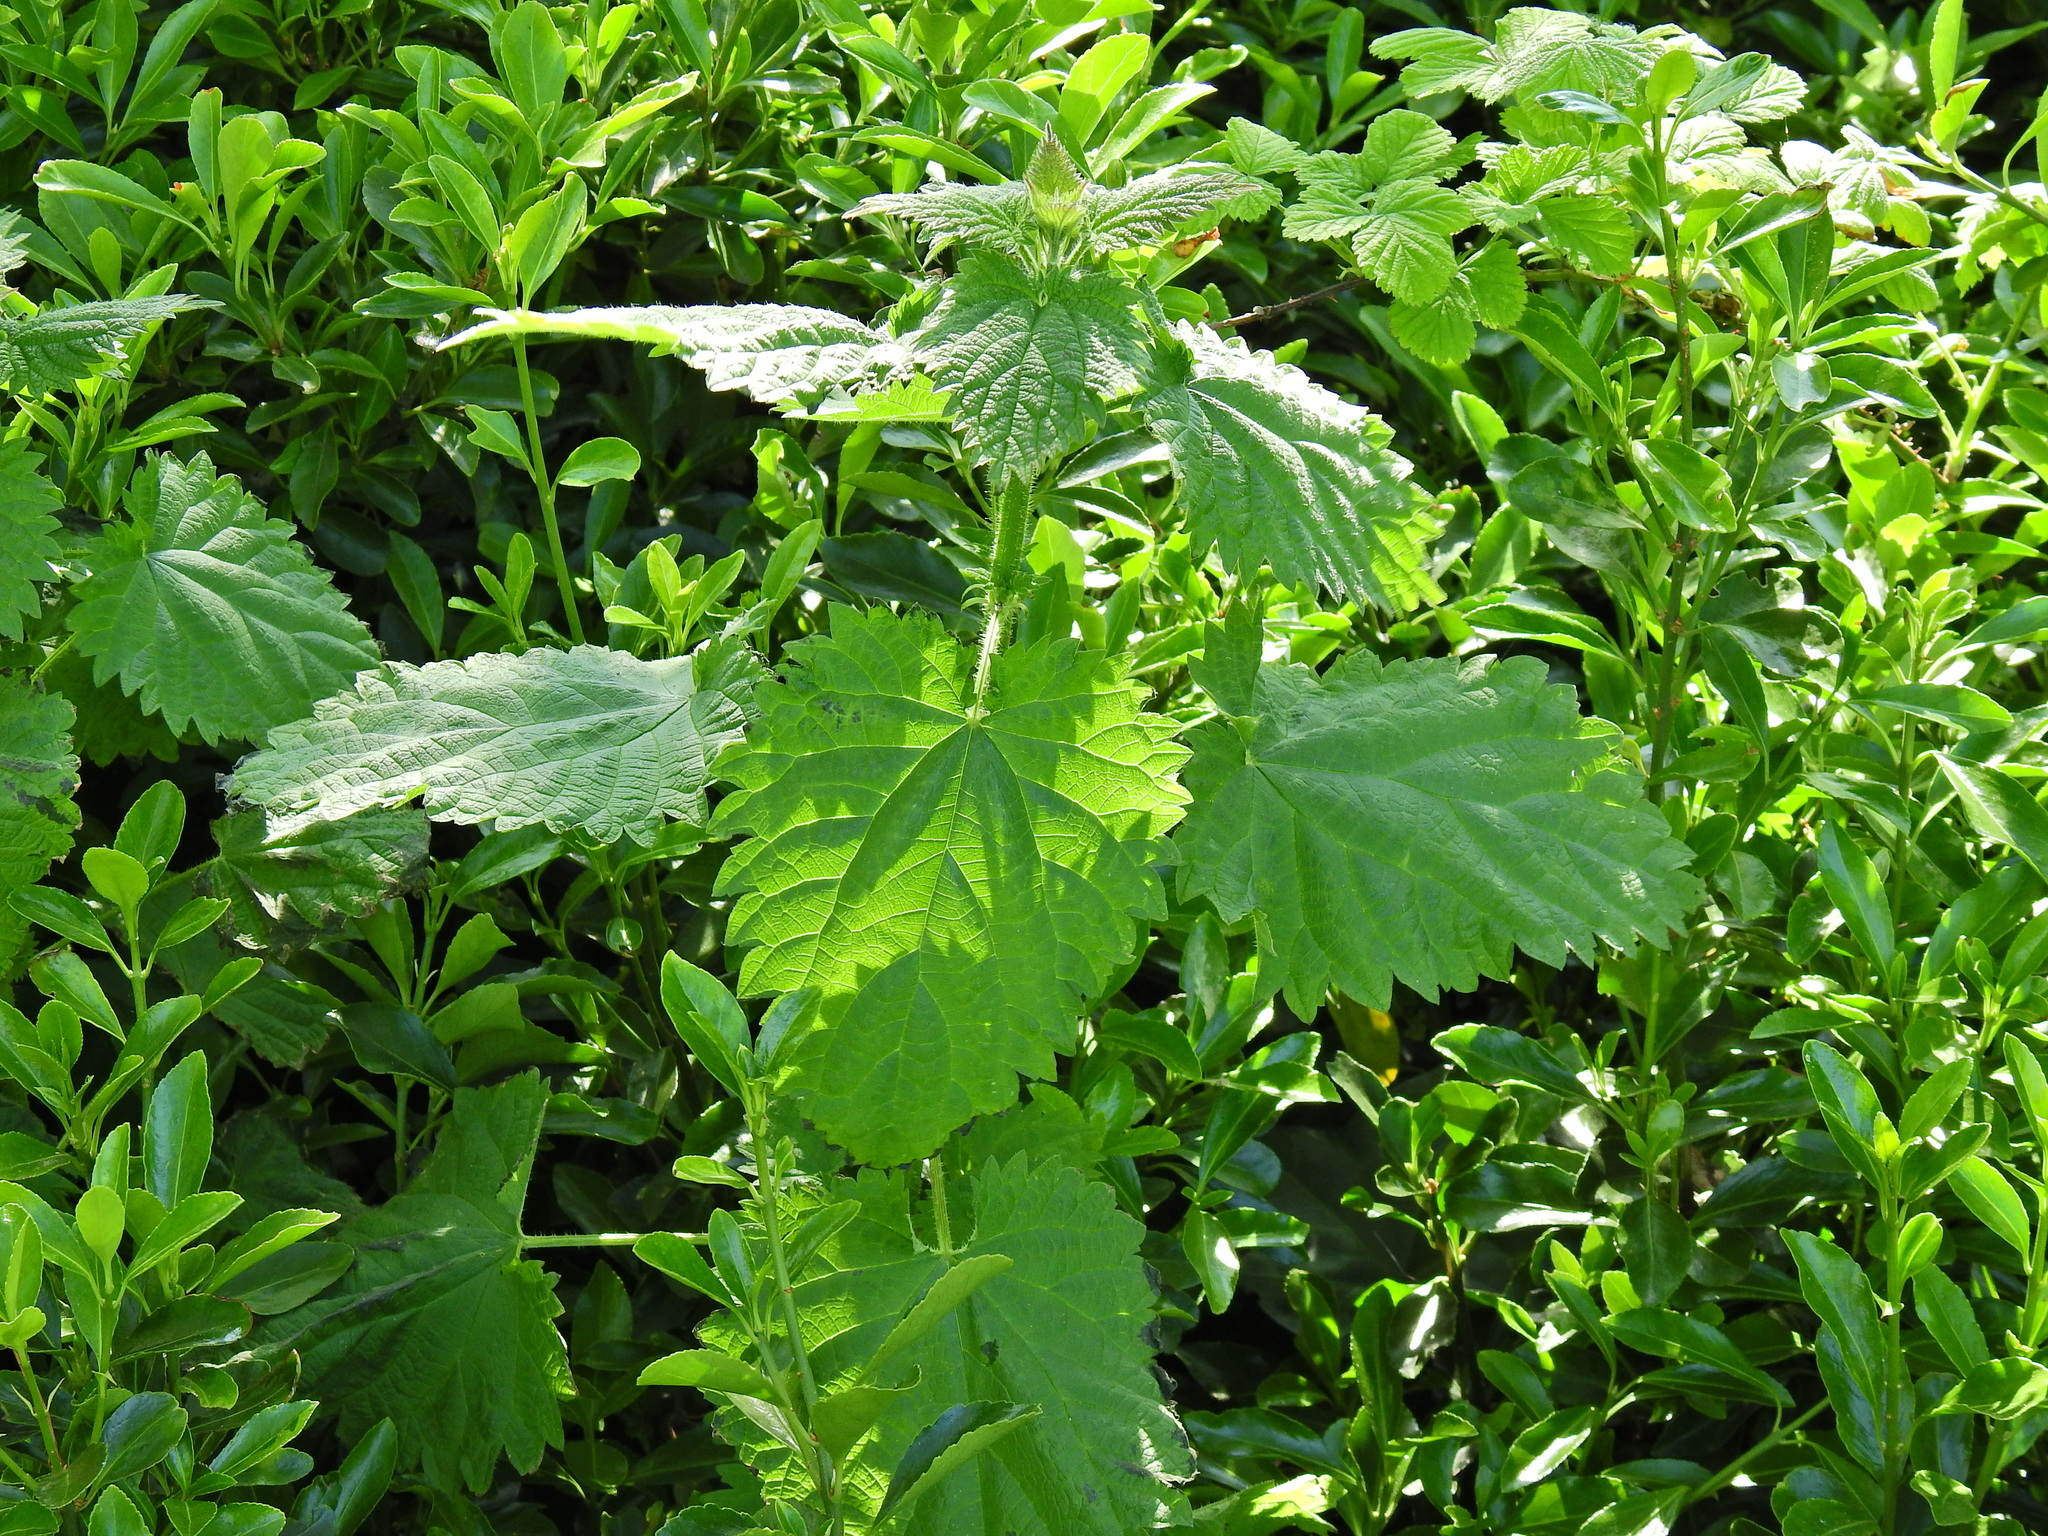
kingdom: Plantae
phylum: Tracheophyta
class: Magnoliopsida
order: Rosales
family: Urticaceae
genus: Urtica
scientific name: Urtica dioica
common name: Common nettle
